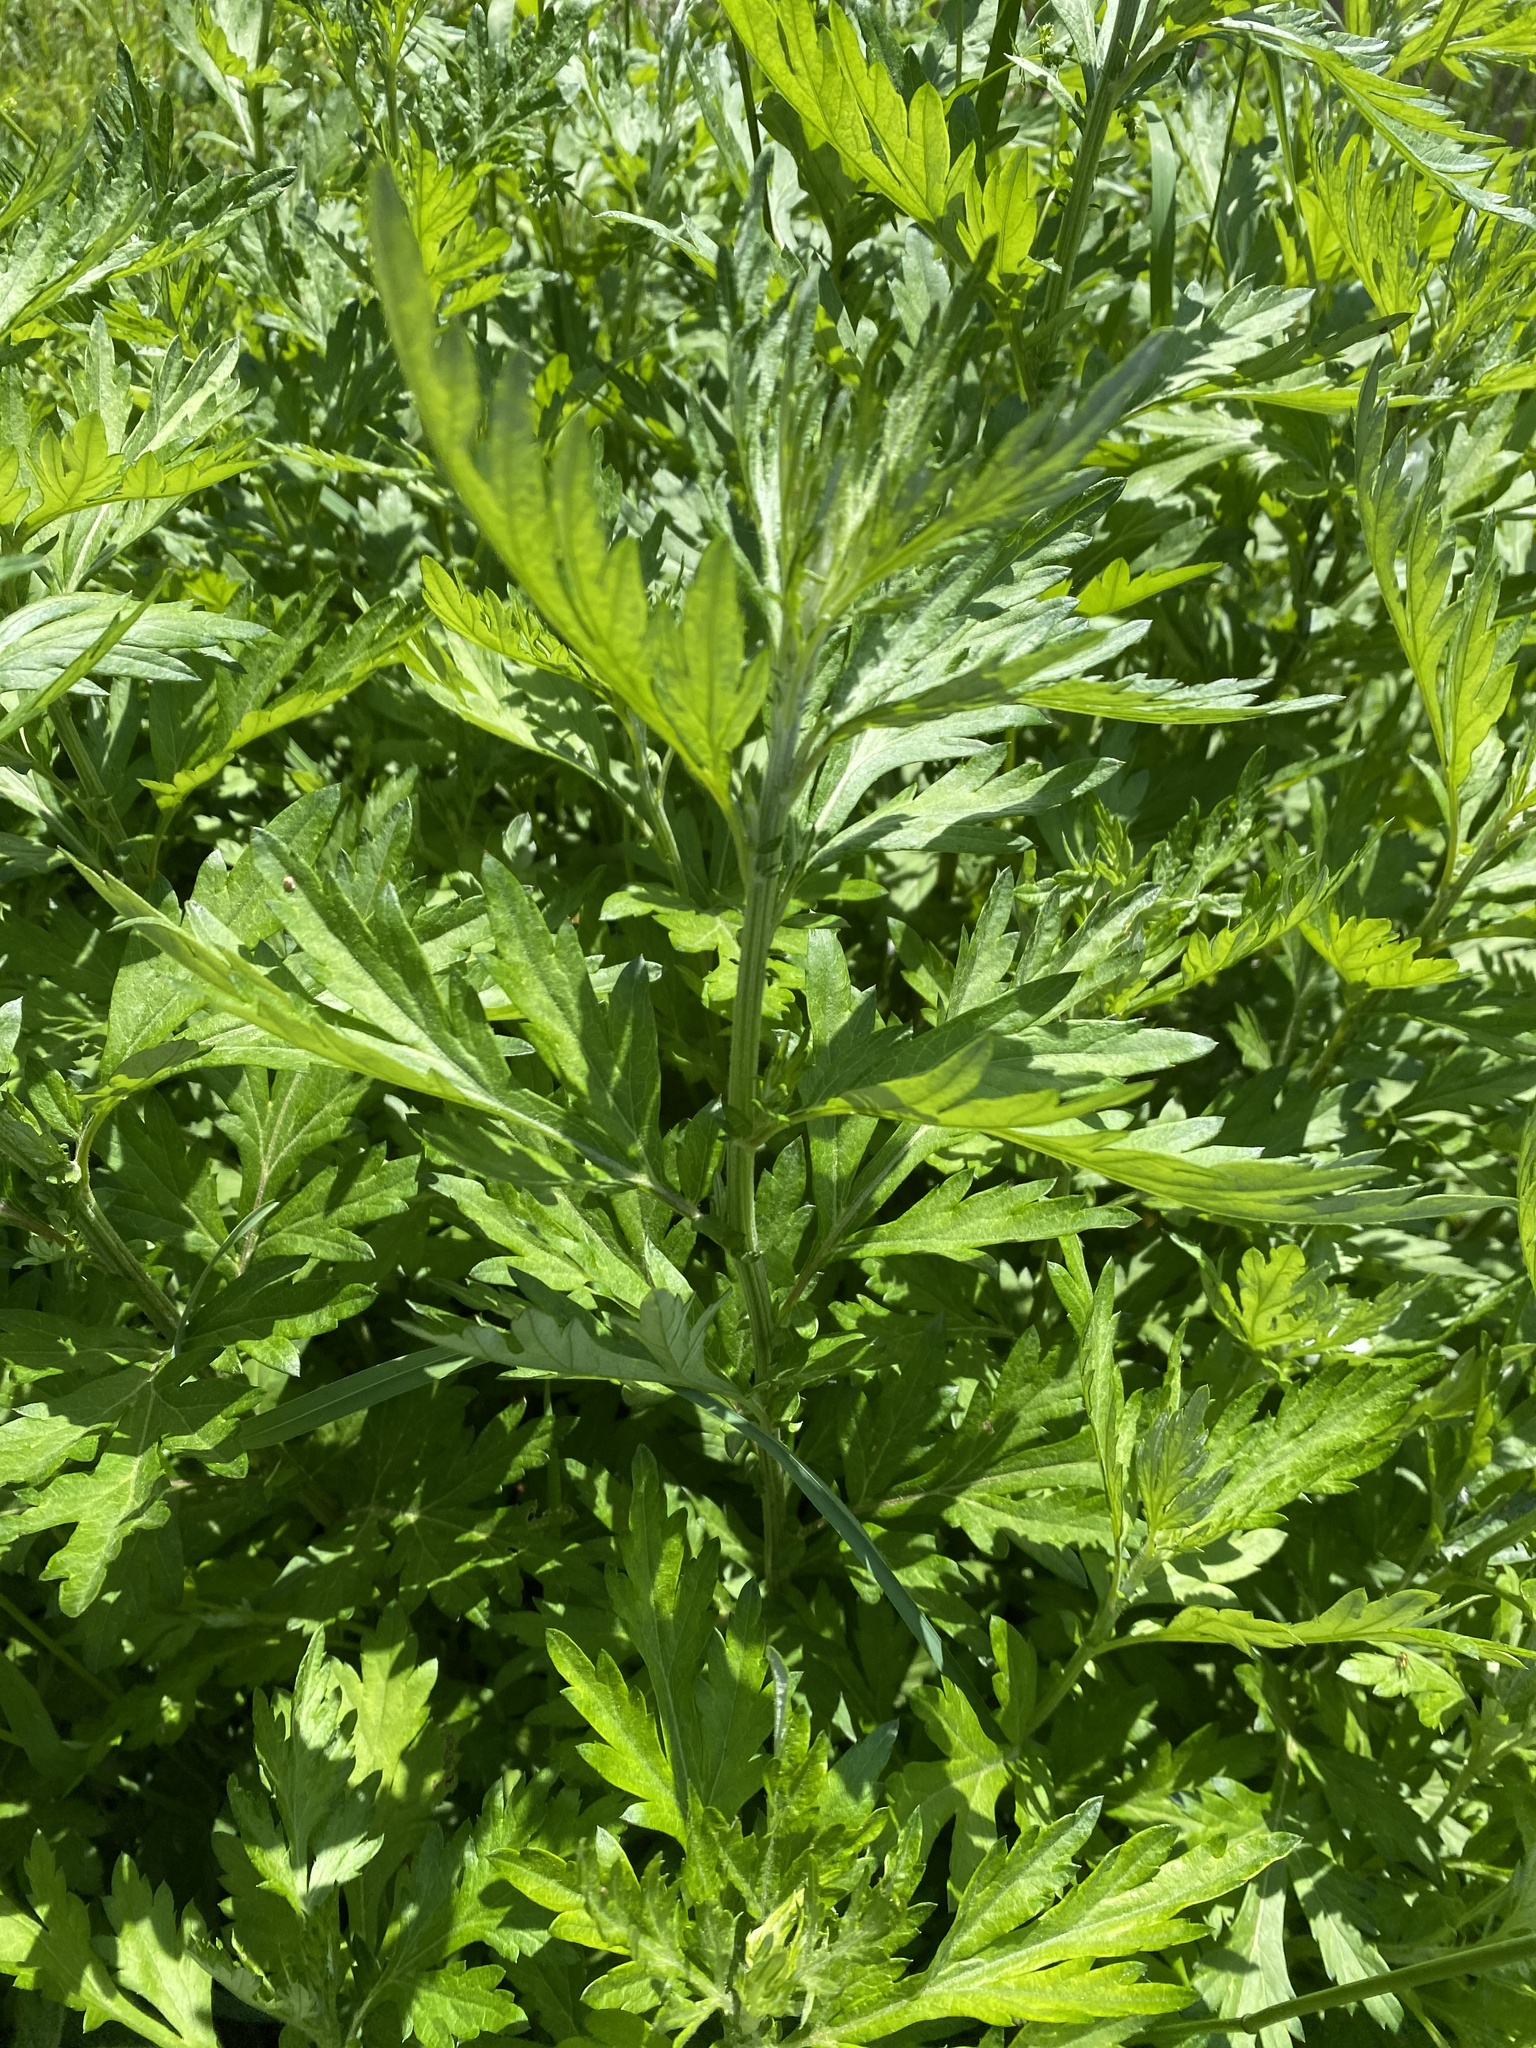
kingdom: Plantae
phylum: Tracheophyta
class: Magnoliopsida
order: Asterales
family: Asteraceae
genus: Artemisia
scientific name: Artemisia vulgaris
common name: Mugwort
